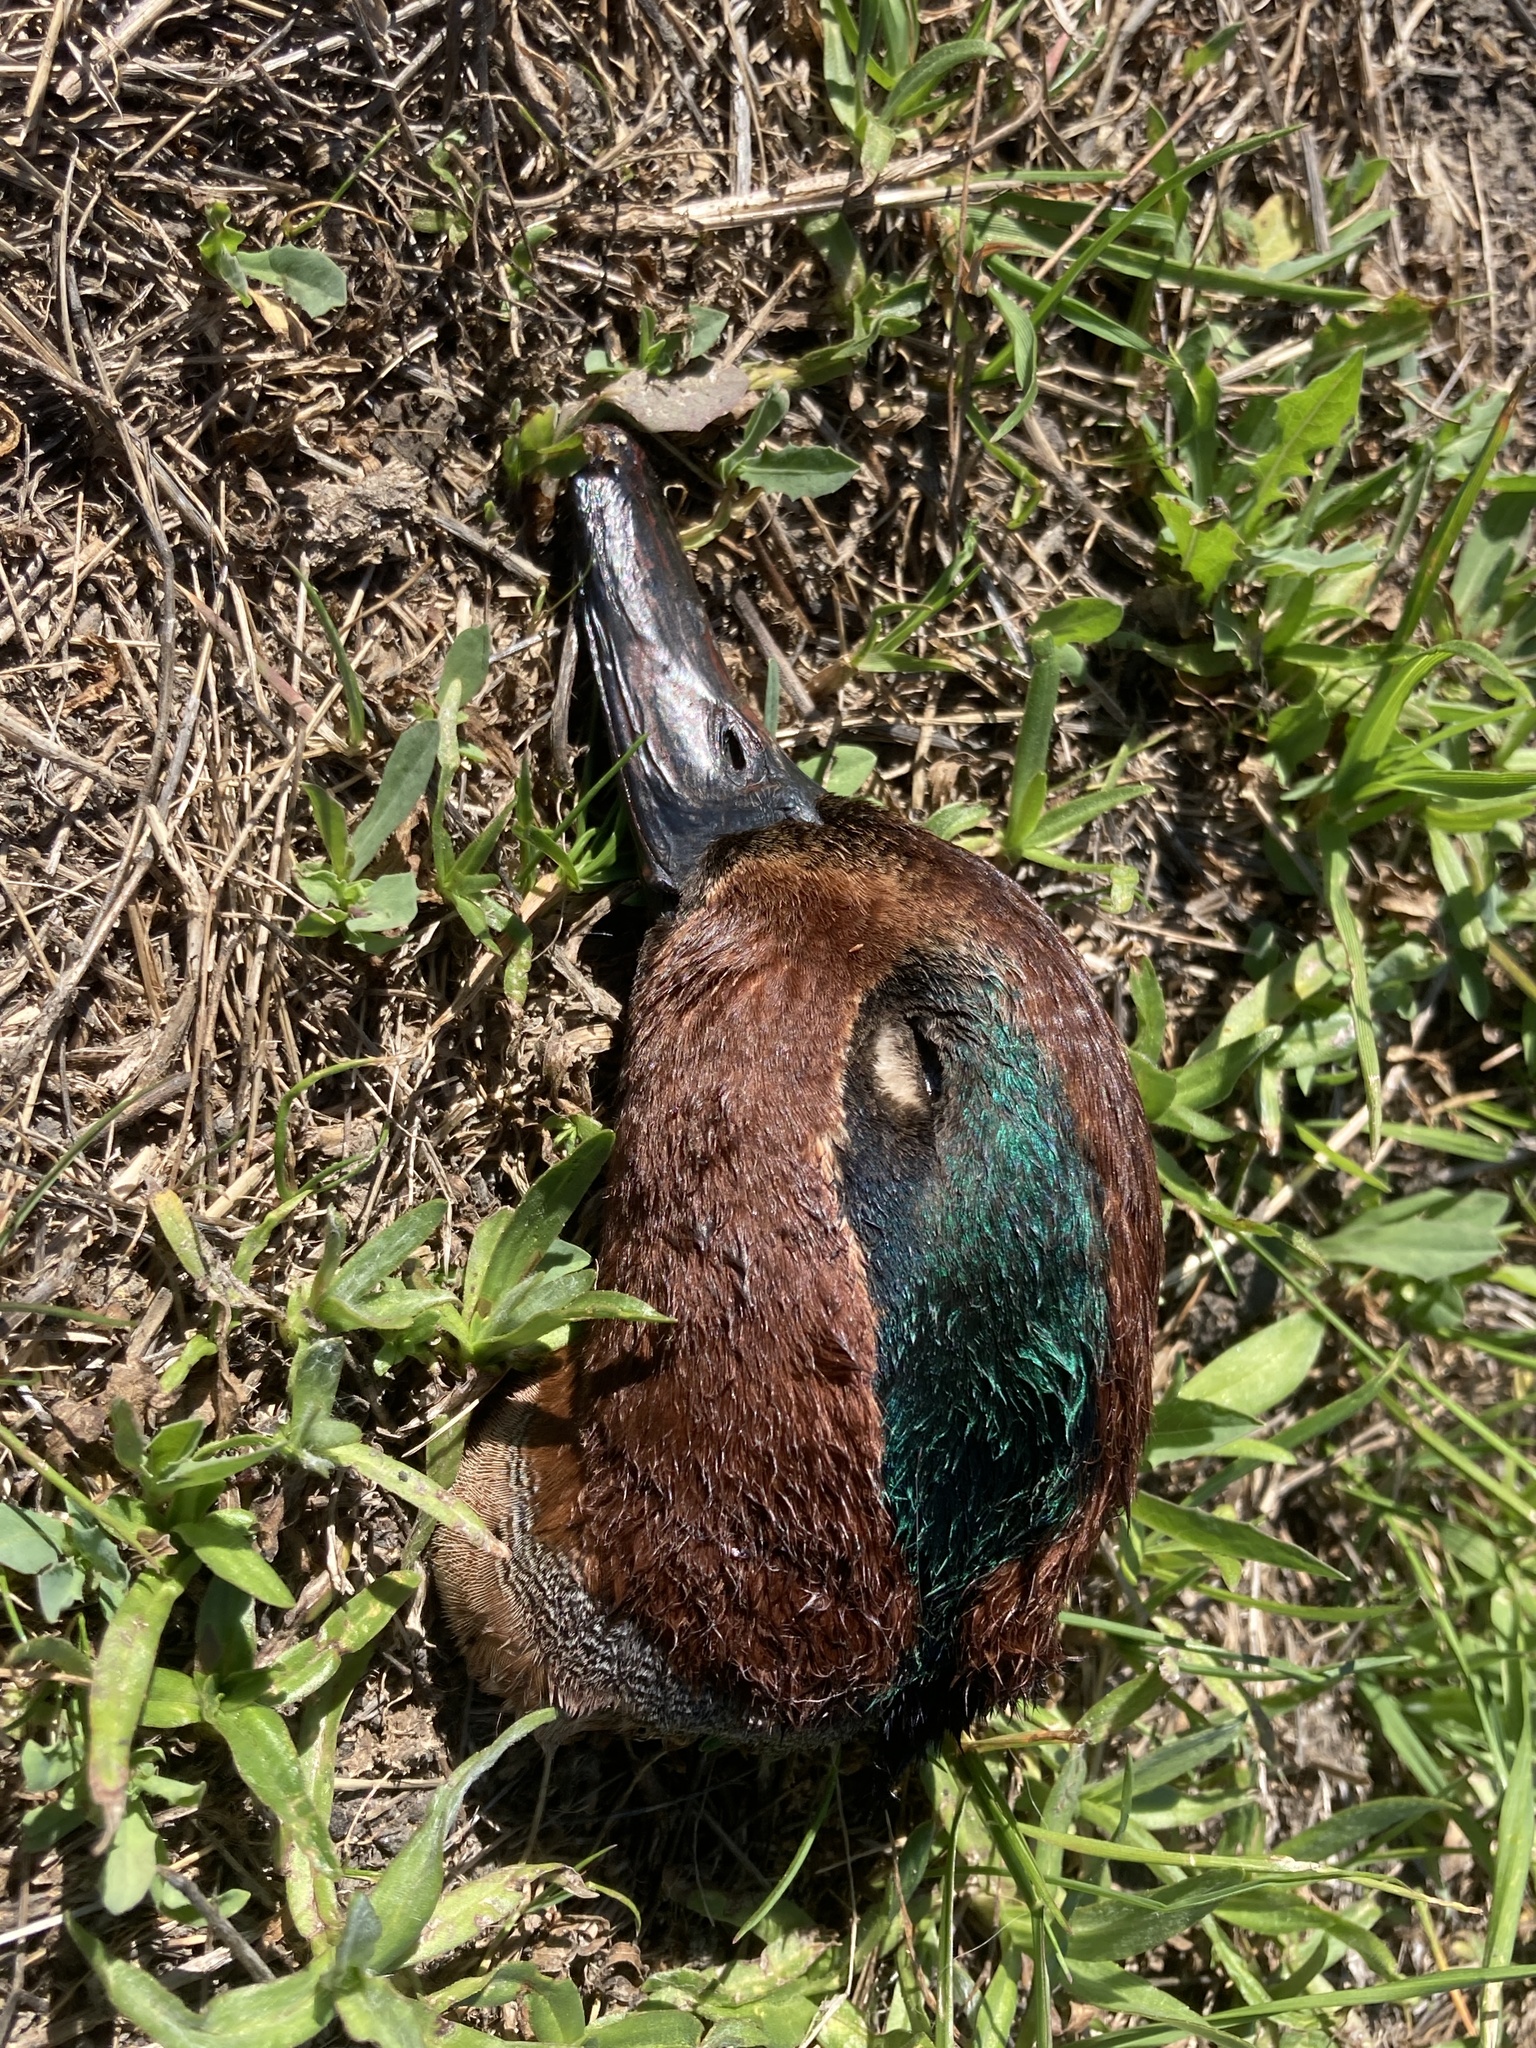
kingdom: Animalia
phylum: Chordata
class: Aves
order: Anseriformes
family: Anatidae
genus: Anas
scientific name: Anas crecca
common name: Eurasian teal
